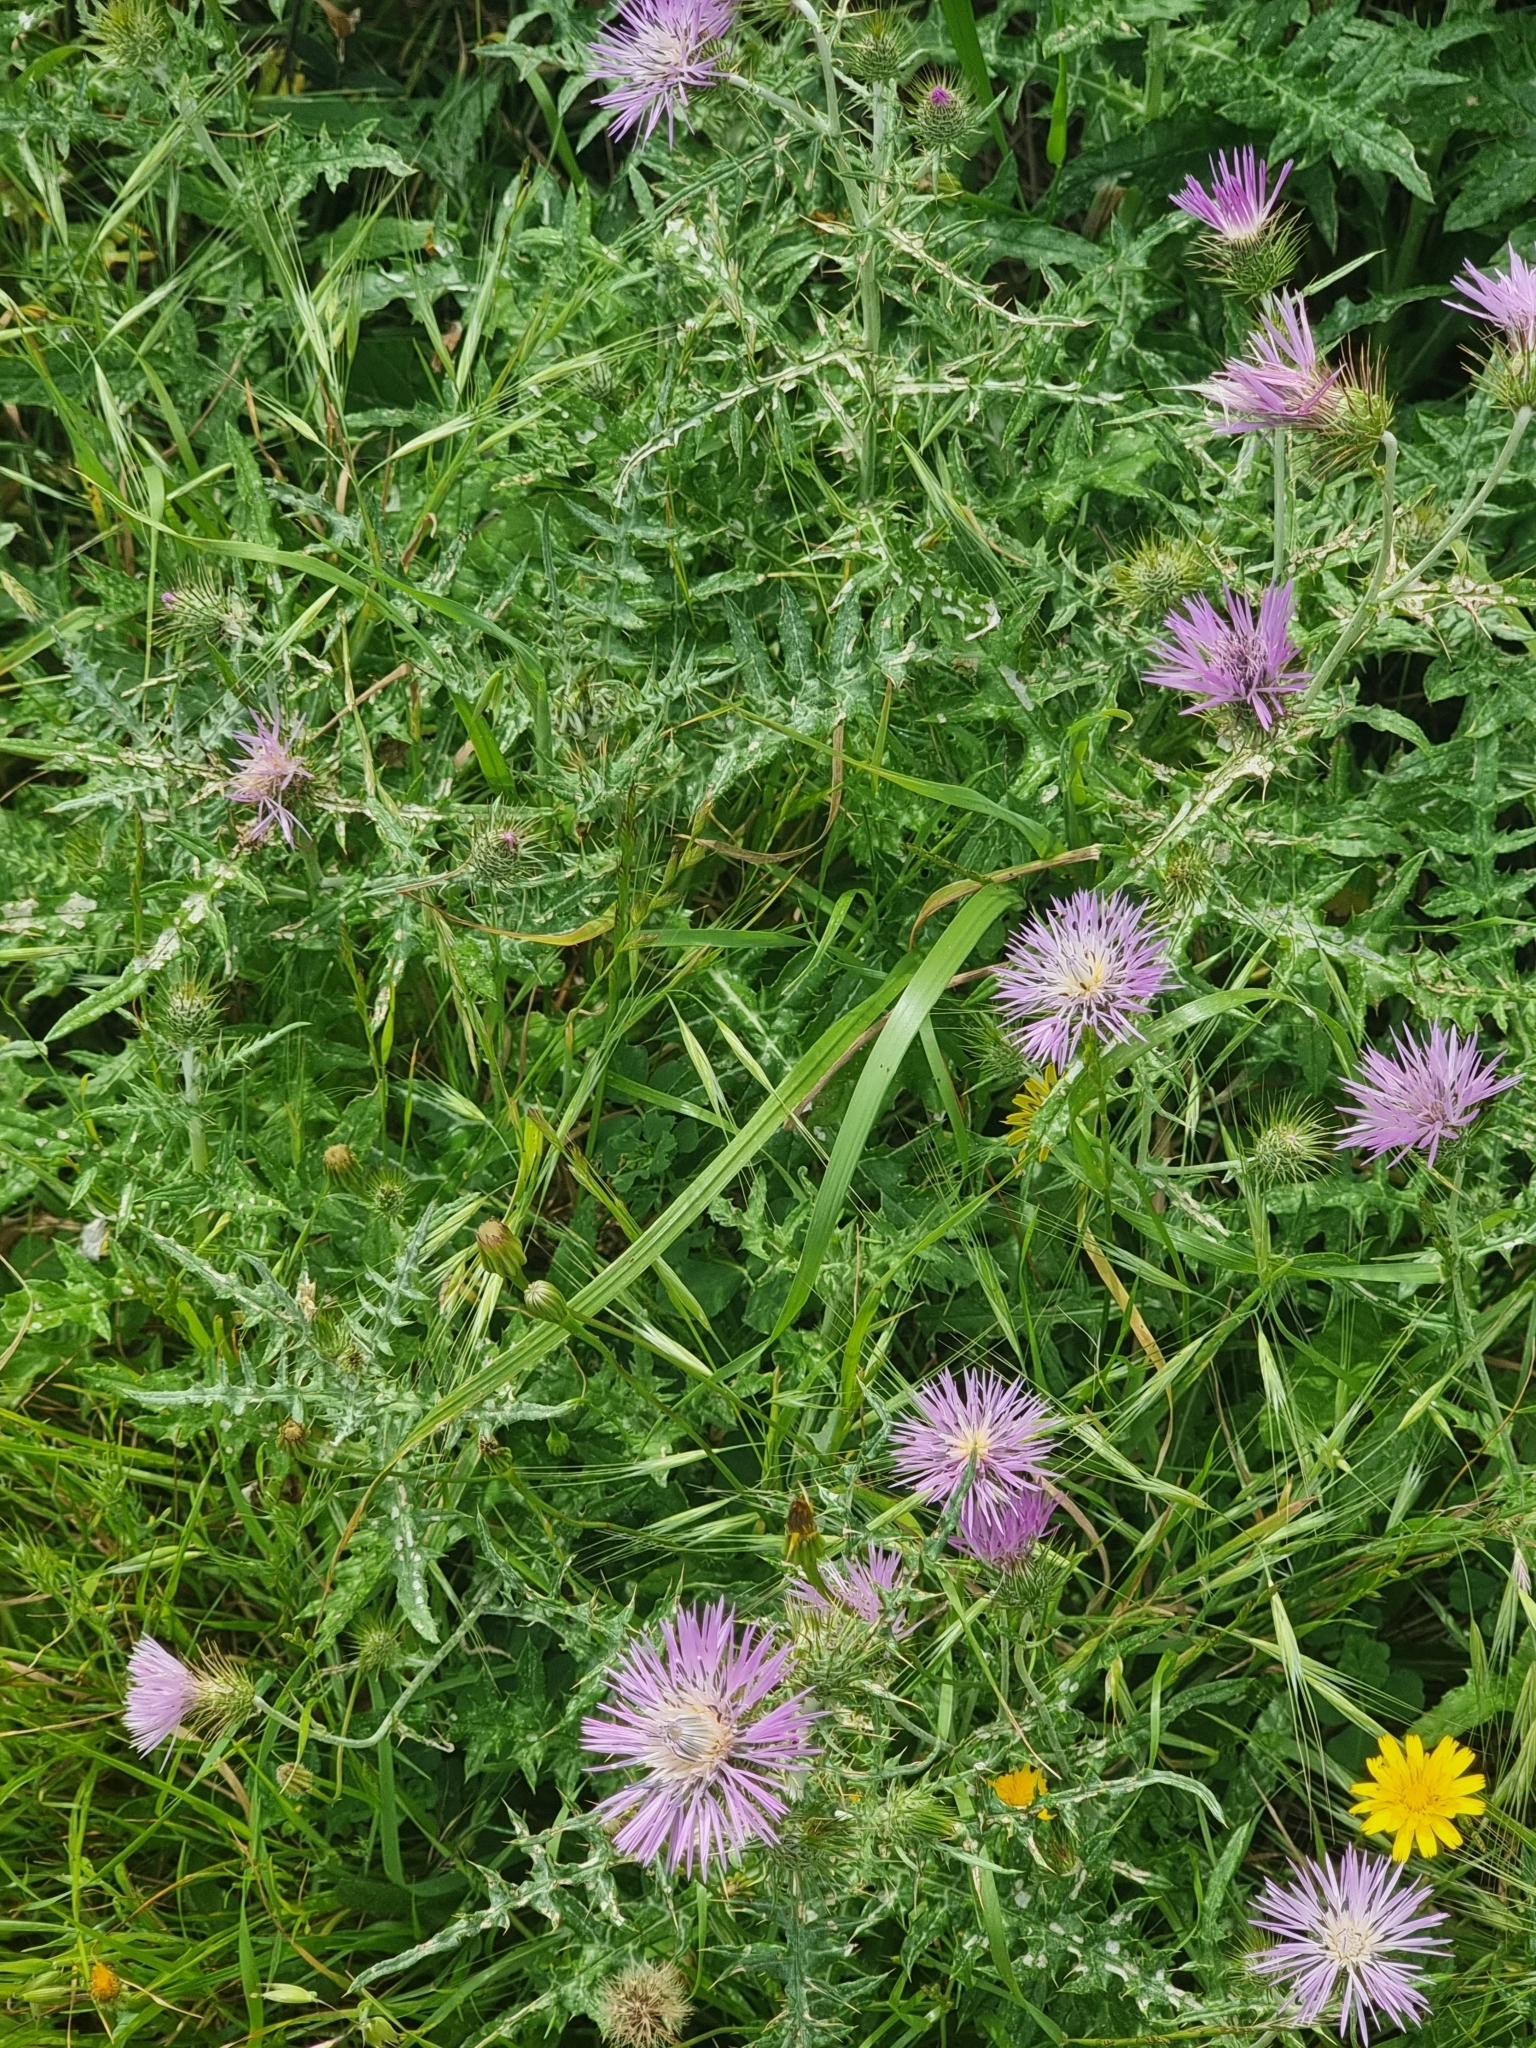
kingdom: Plantae
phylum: Tracheophyta
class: Magnoliopsida
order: Asterales
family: Asteraceae
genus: Galactites
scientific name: Galactites tomentosa
